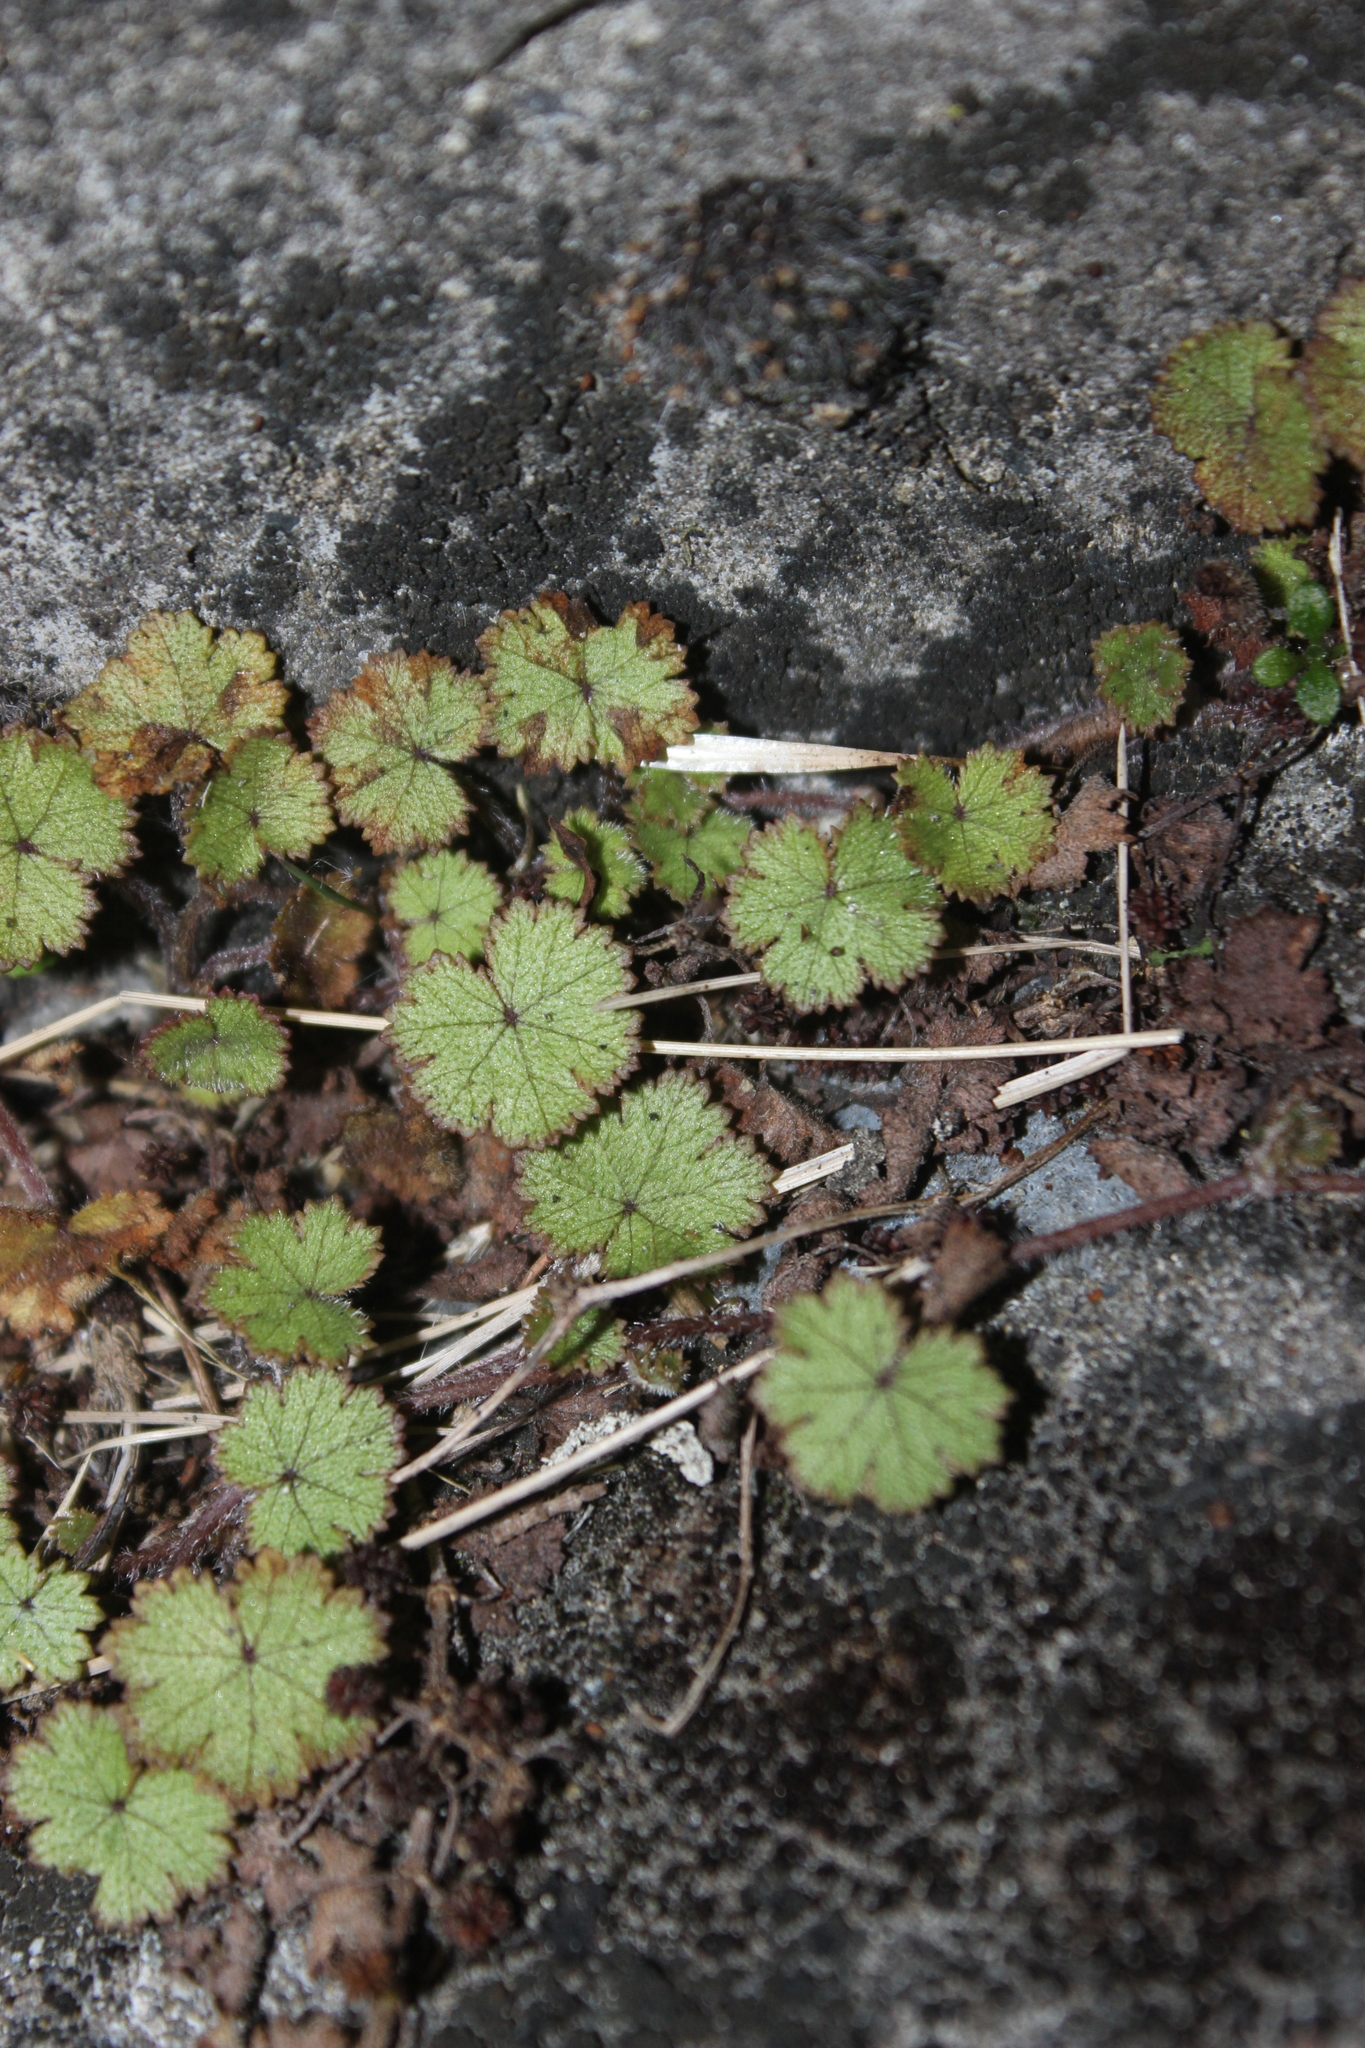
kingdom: Plantae
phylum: Tracheophyta
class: Magnoliopsida
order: Apiales
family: Araliaceae
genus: Hydrocotyle
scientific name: Hydrocotyle moschata
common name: Hairy pennywort
